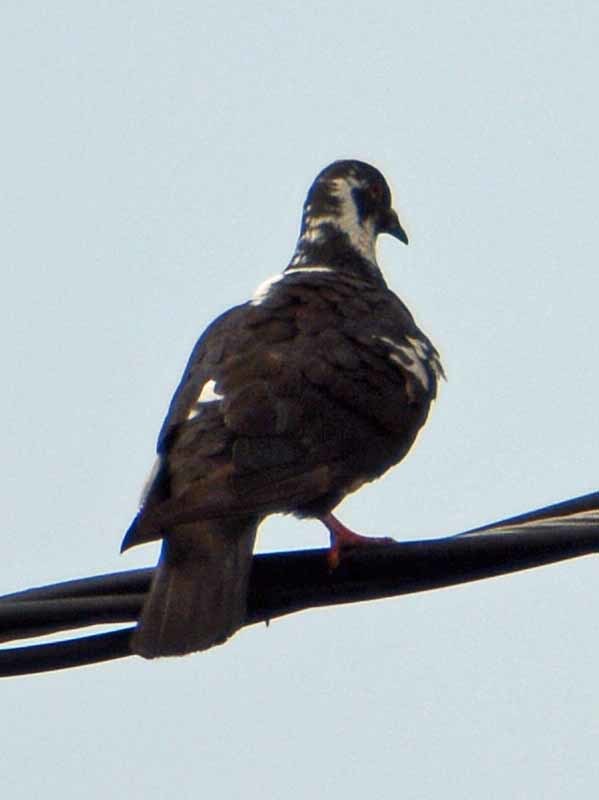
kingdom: Animalia
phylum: Chordata
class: Aves
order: Columbiformes
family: Columbidae
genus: Columba
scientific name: Columba livia
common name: Rock pigeon
